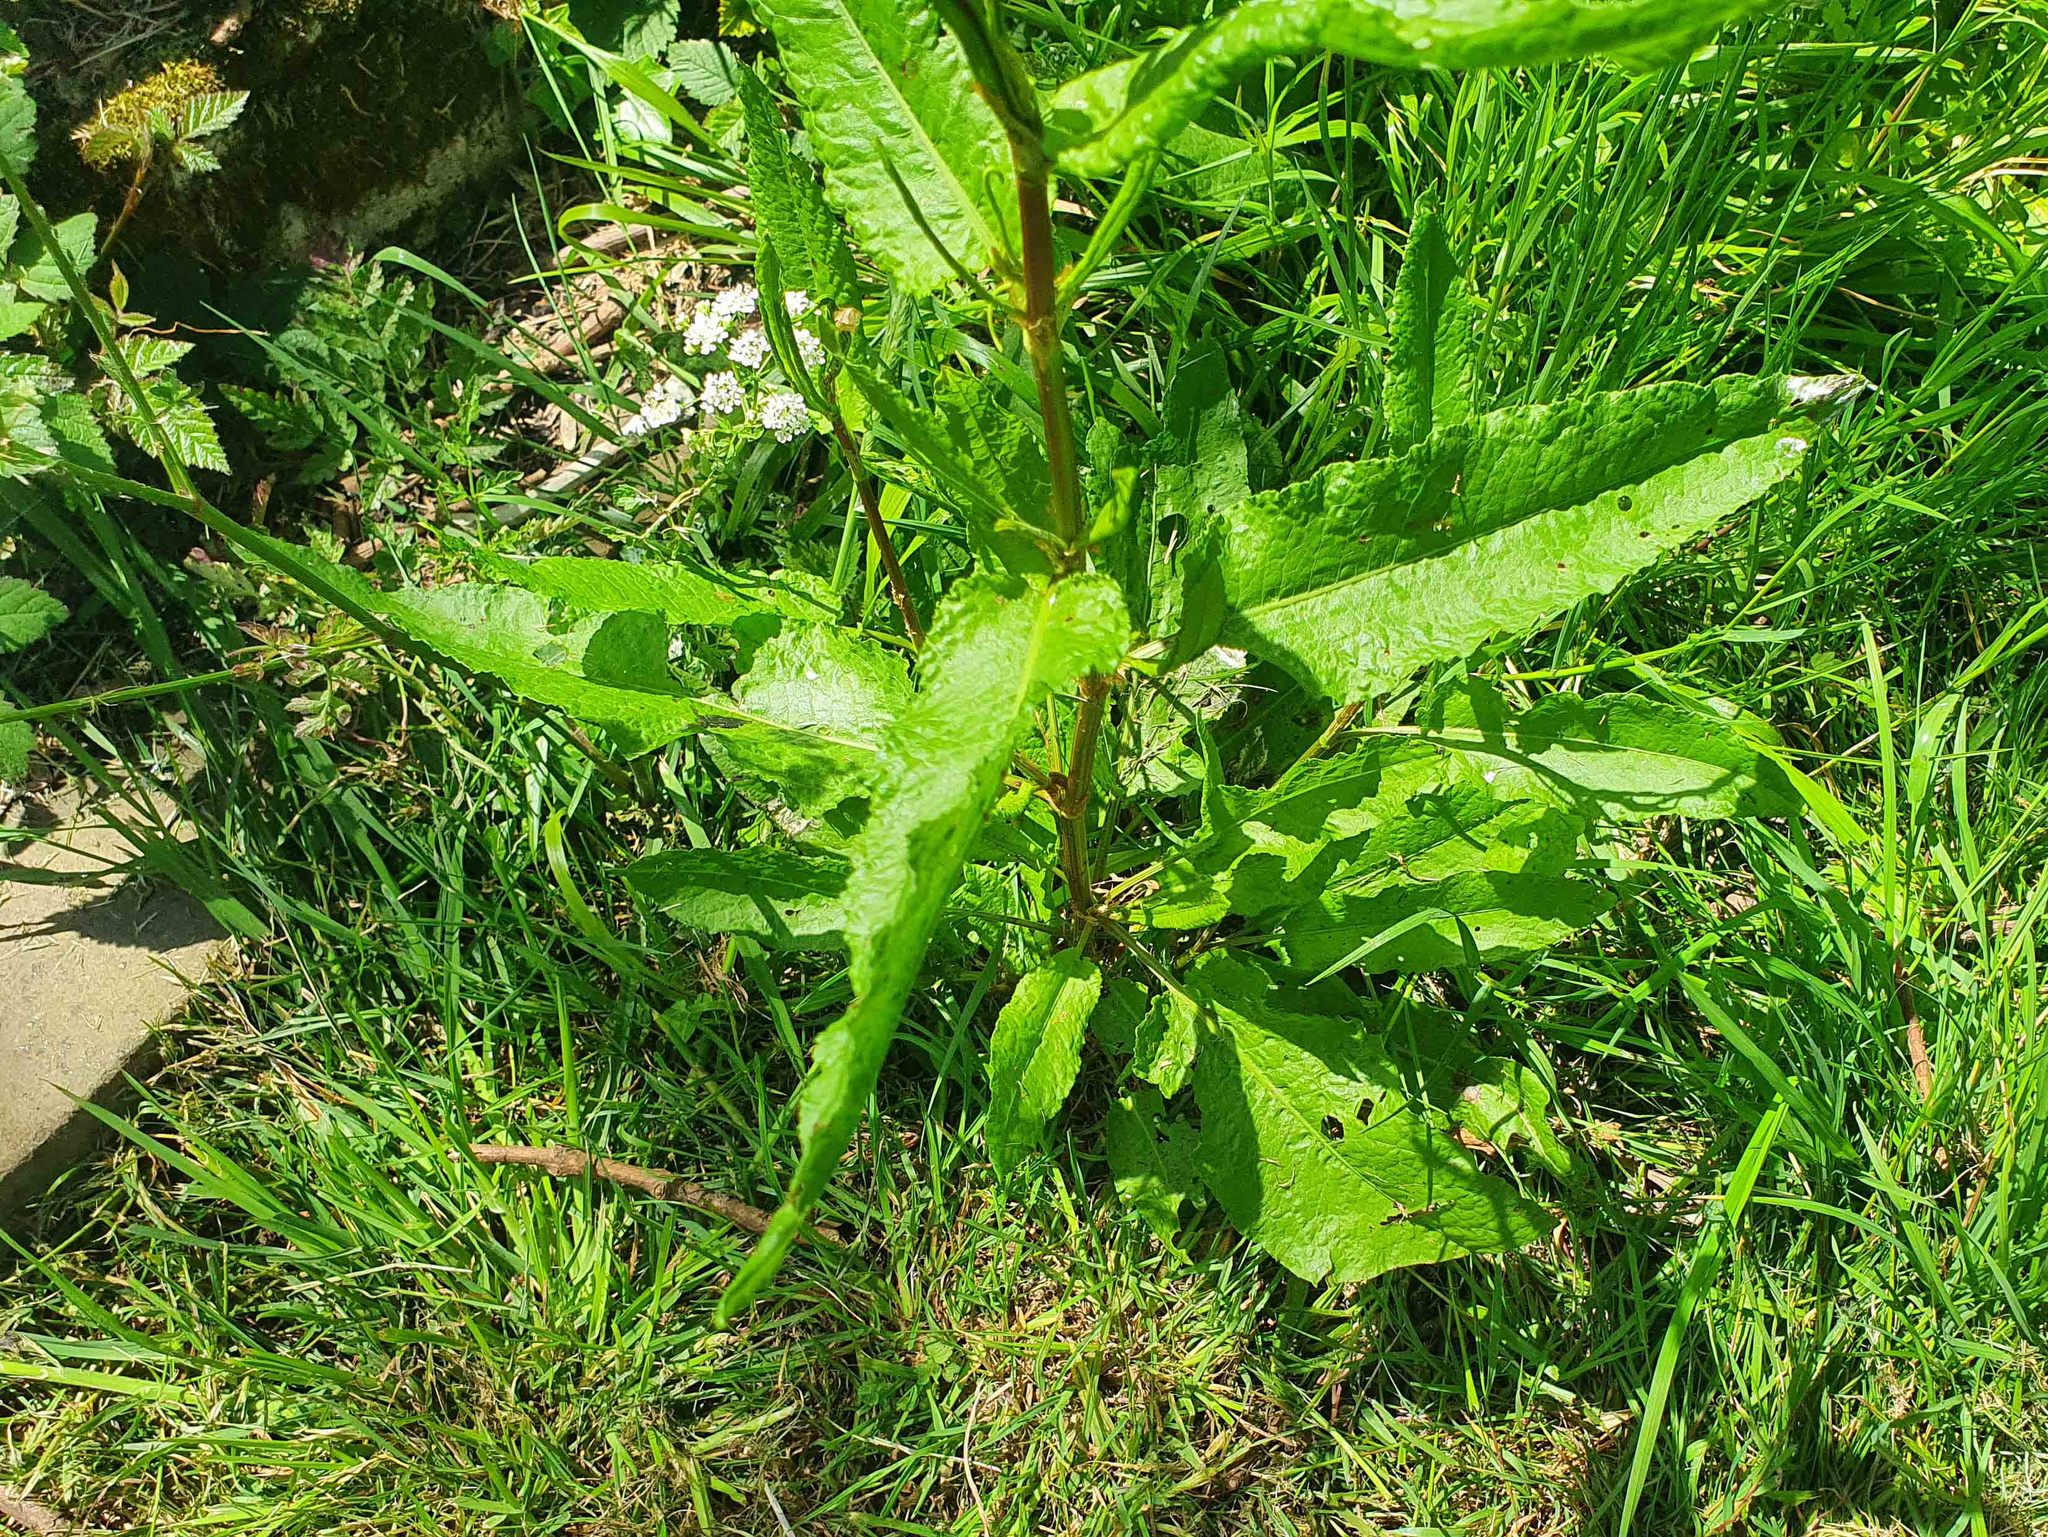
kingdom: Plantae
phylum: Tracheophyta
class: Magnoliopsida
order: Caryophyllales
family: Polygonaceae
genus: Rumex
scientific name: Rumex obtusifolius
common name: Bitter dock
